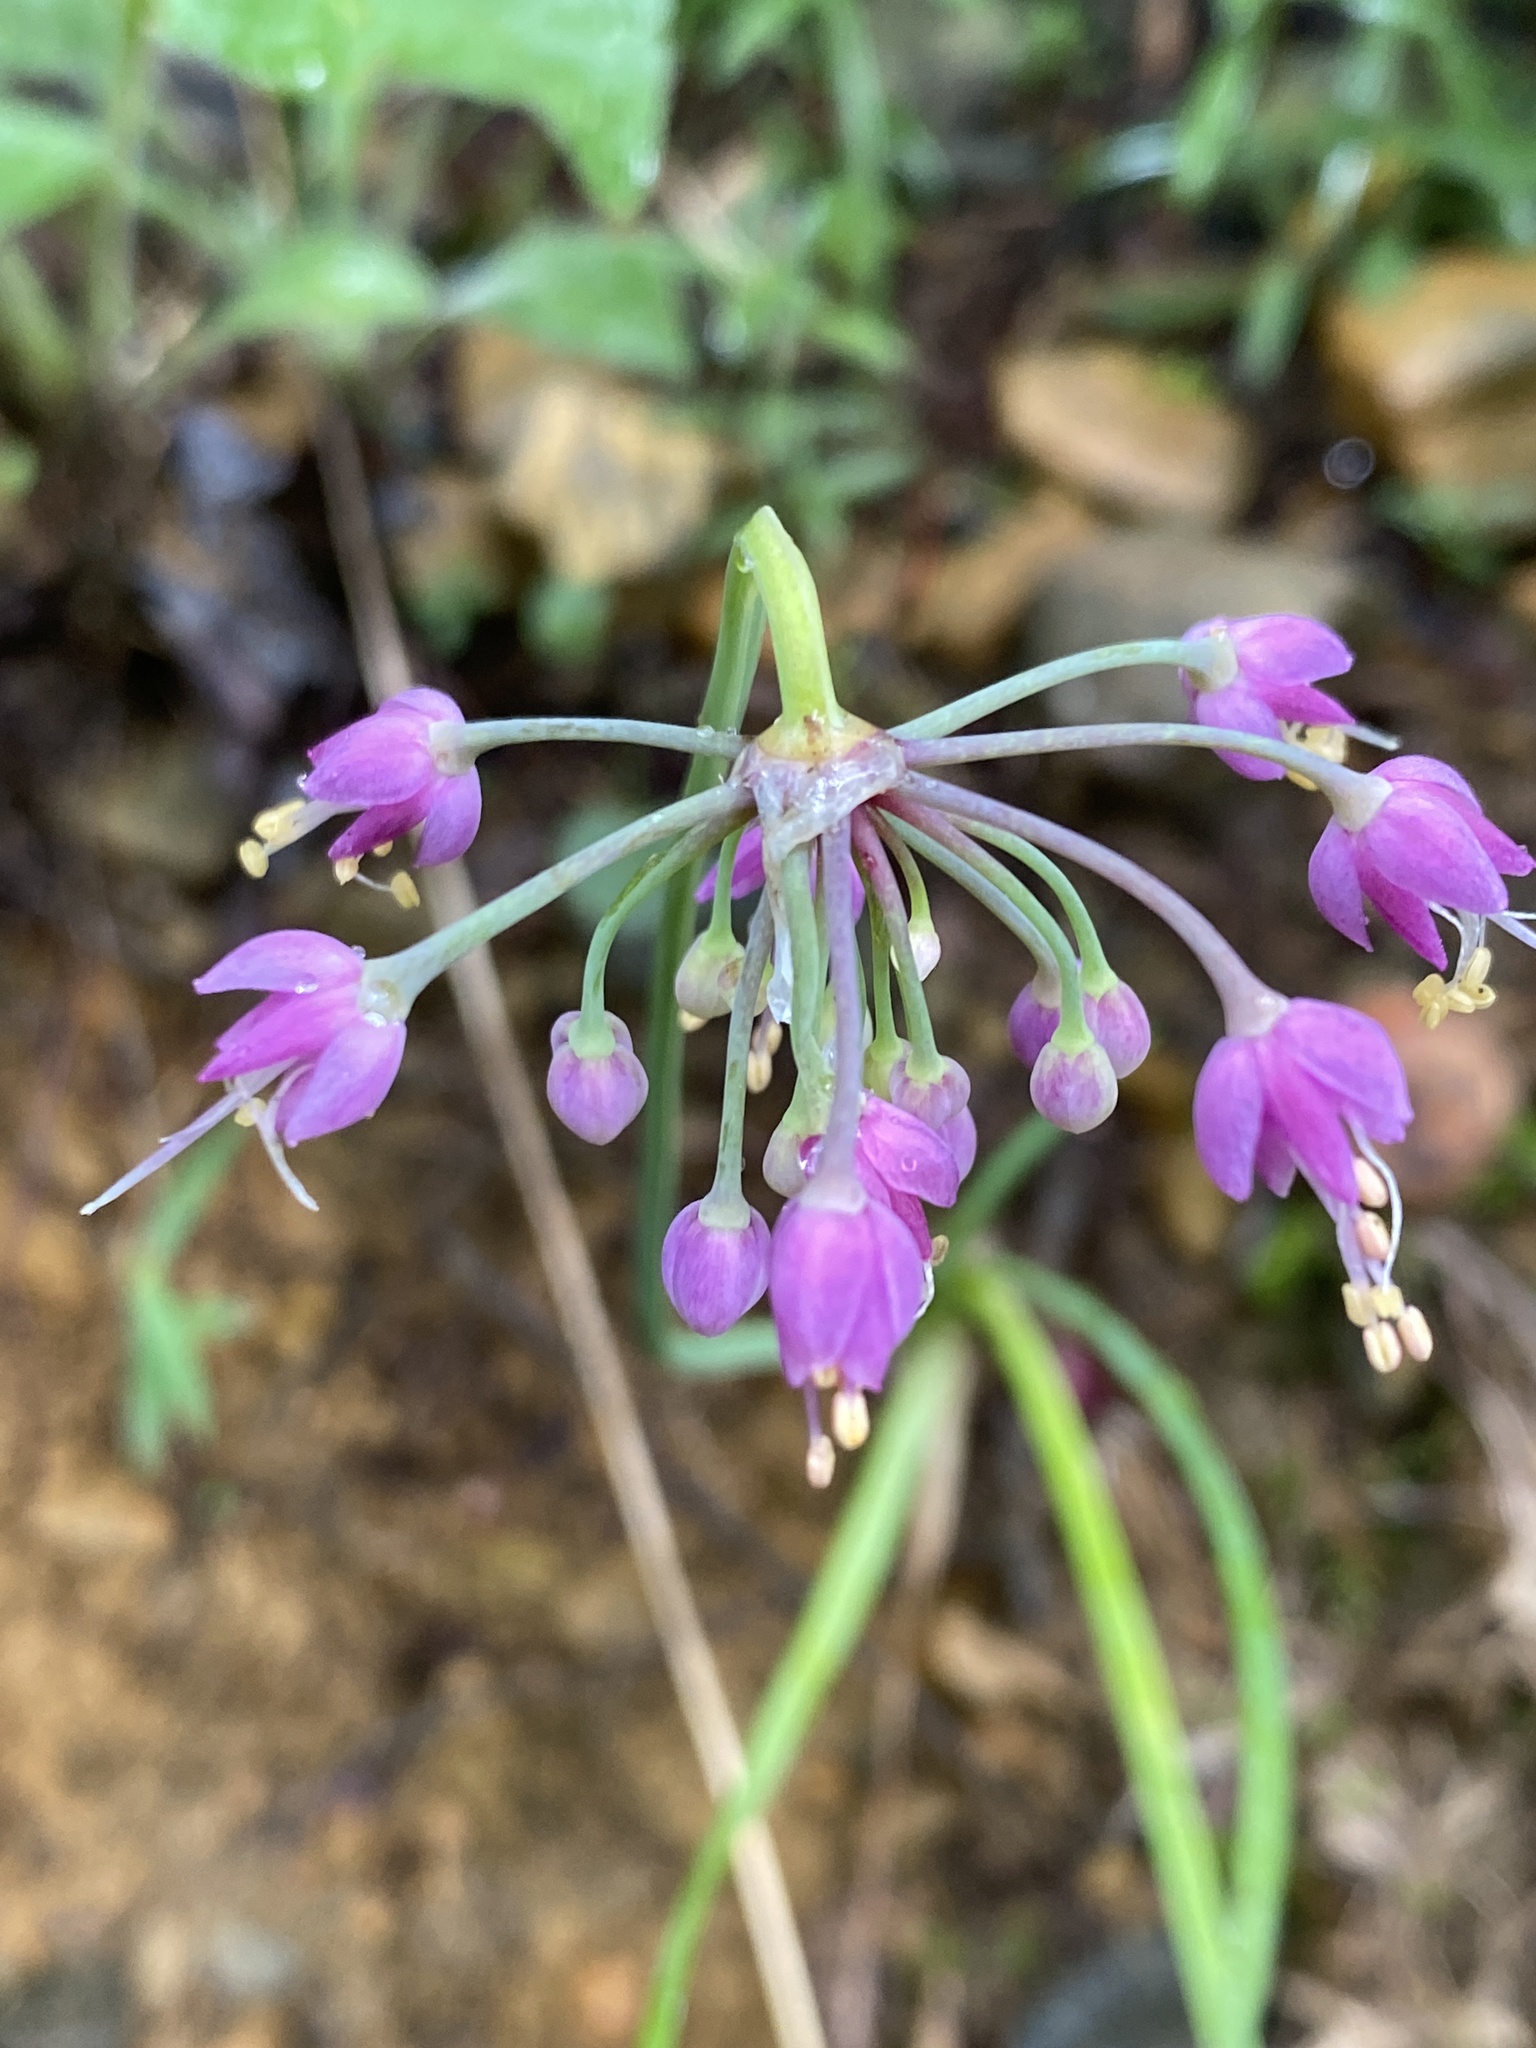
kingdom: Plantae
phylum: Tracheophyta
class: Liliopsida
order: Asparagales
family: Amaryllidaceae
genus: Allium
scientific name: Allium cernuum
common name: Nodding onion
